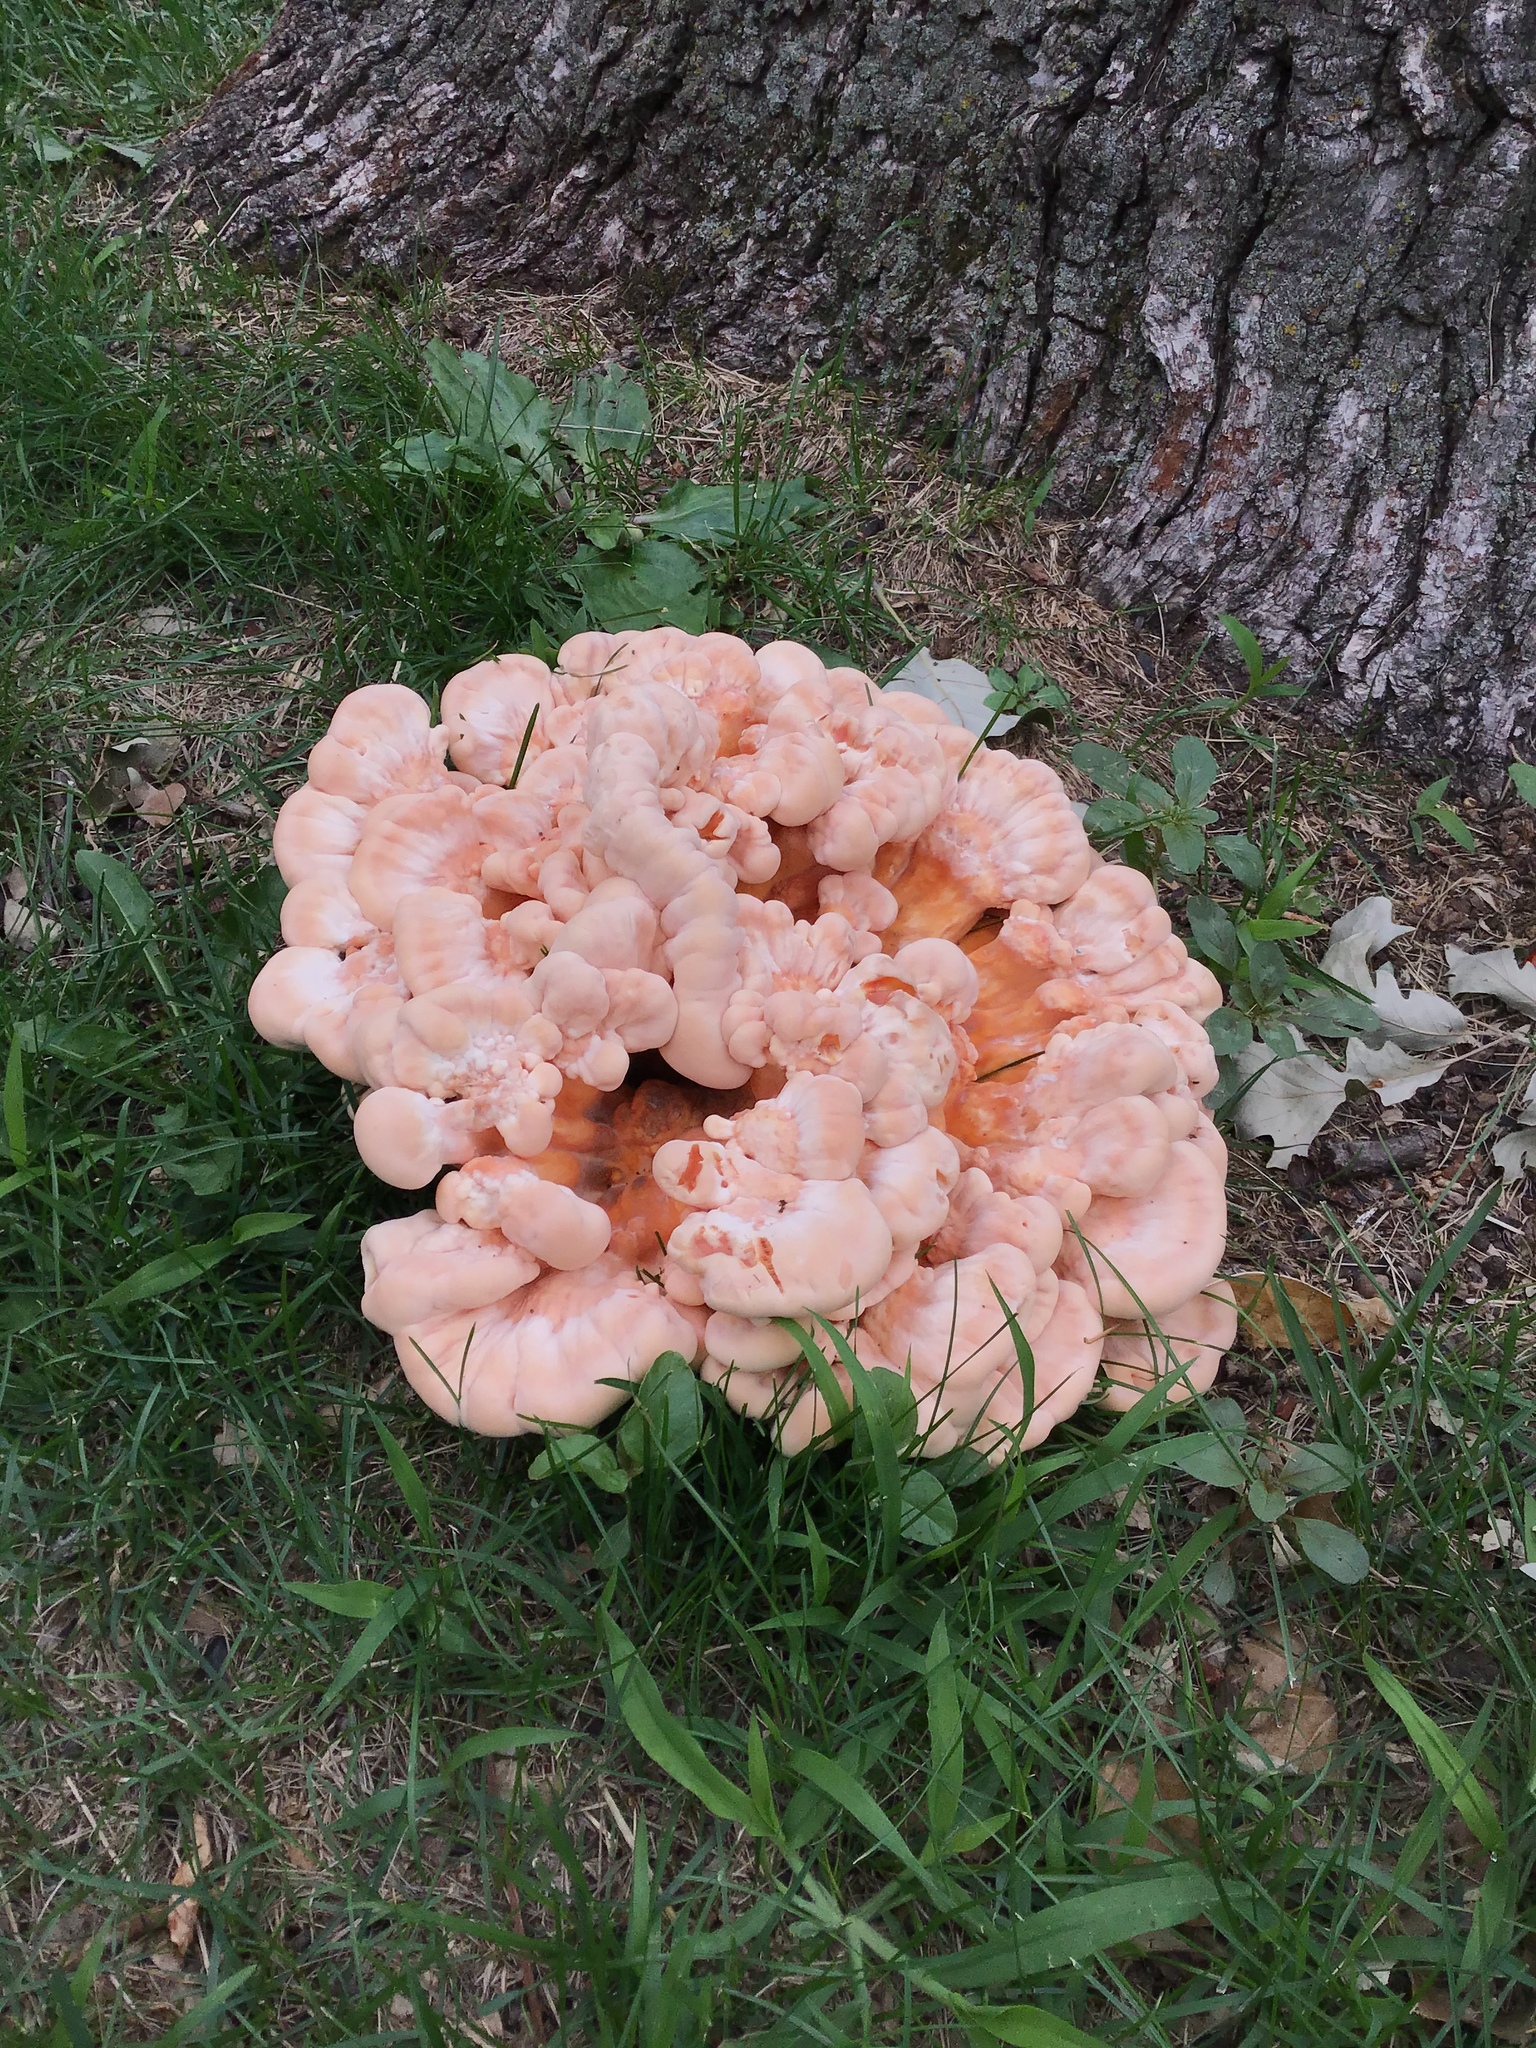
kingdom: Fungi
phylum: Basidiomycota
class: Agaricomycetes
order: Polyporales
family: Laetiporaceae
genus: Laetiporus
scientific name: Laetiporus sulphureus
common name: Chicken of the woods
